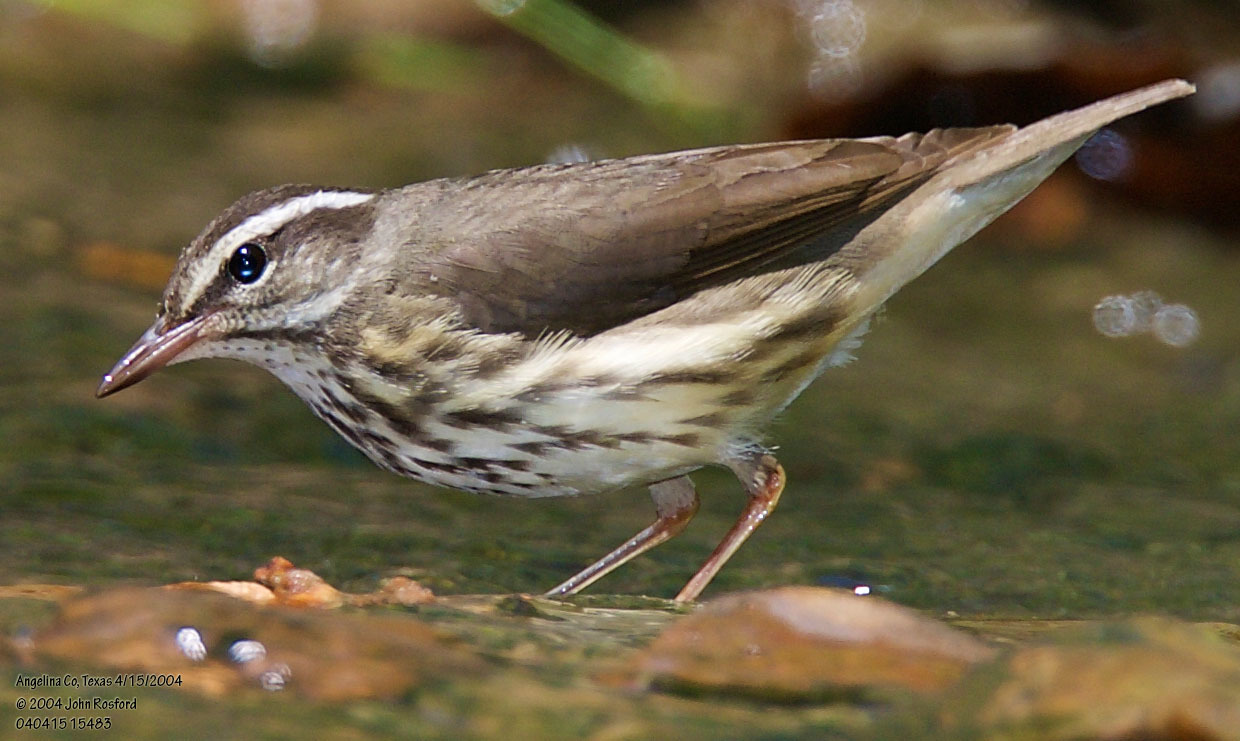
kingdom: Animalia
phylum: Chordata
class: Aves
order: Passeriformes
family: Parulidae
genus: Parkesia
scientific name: Parkesia motacilla
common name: Louisiana waterthrush
